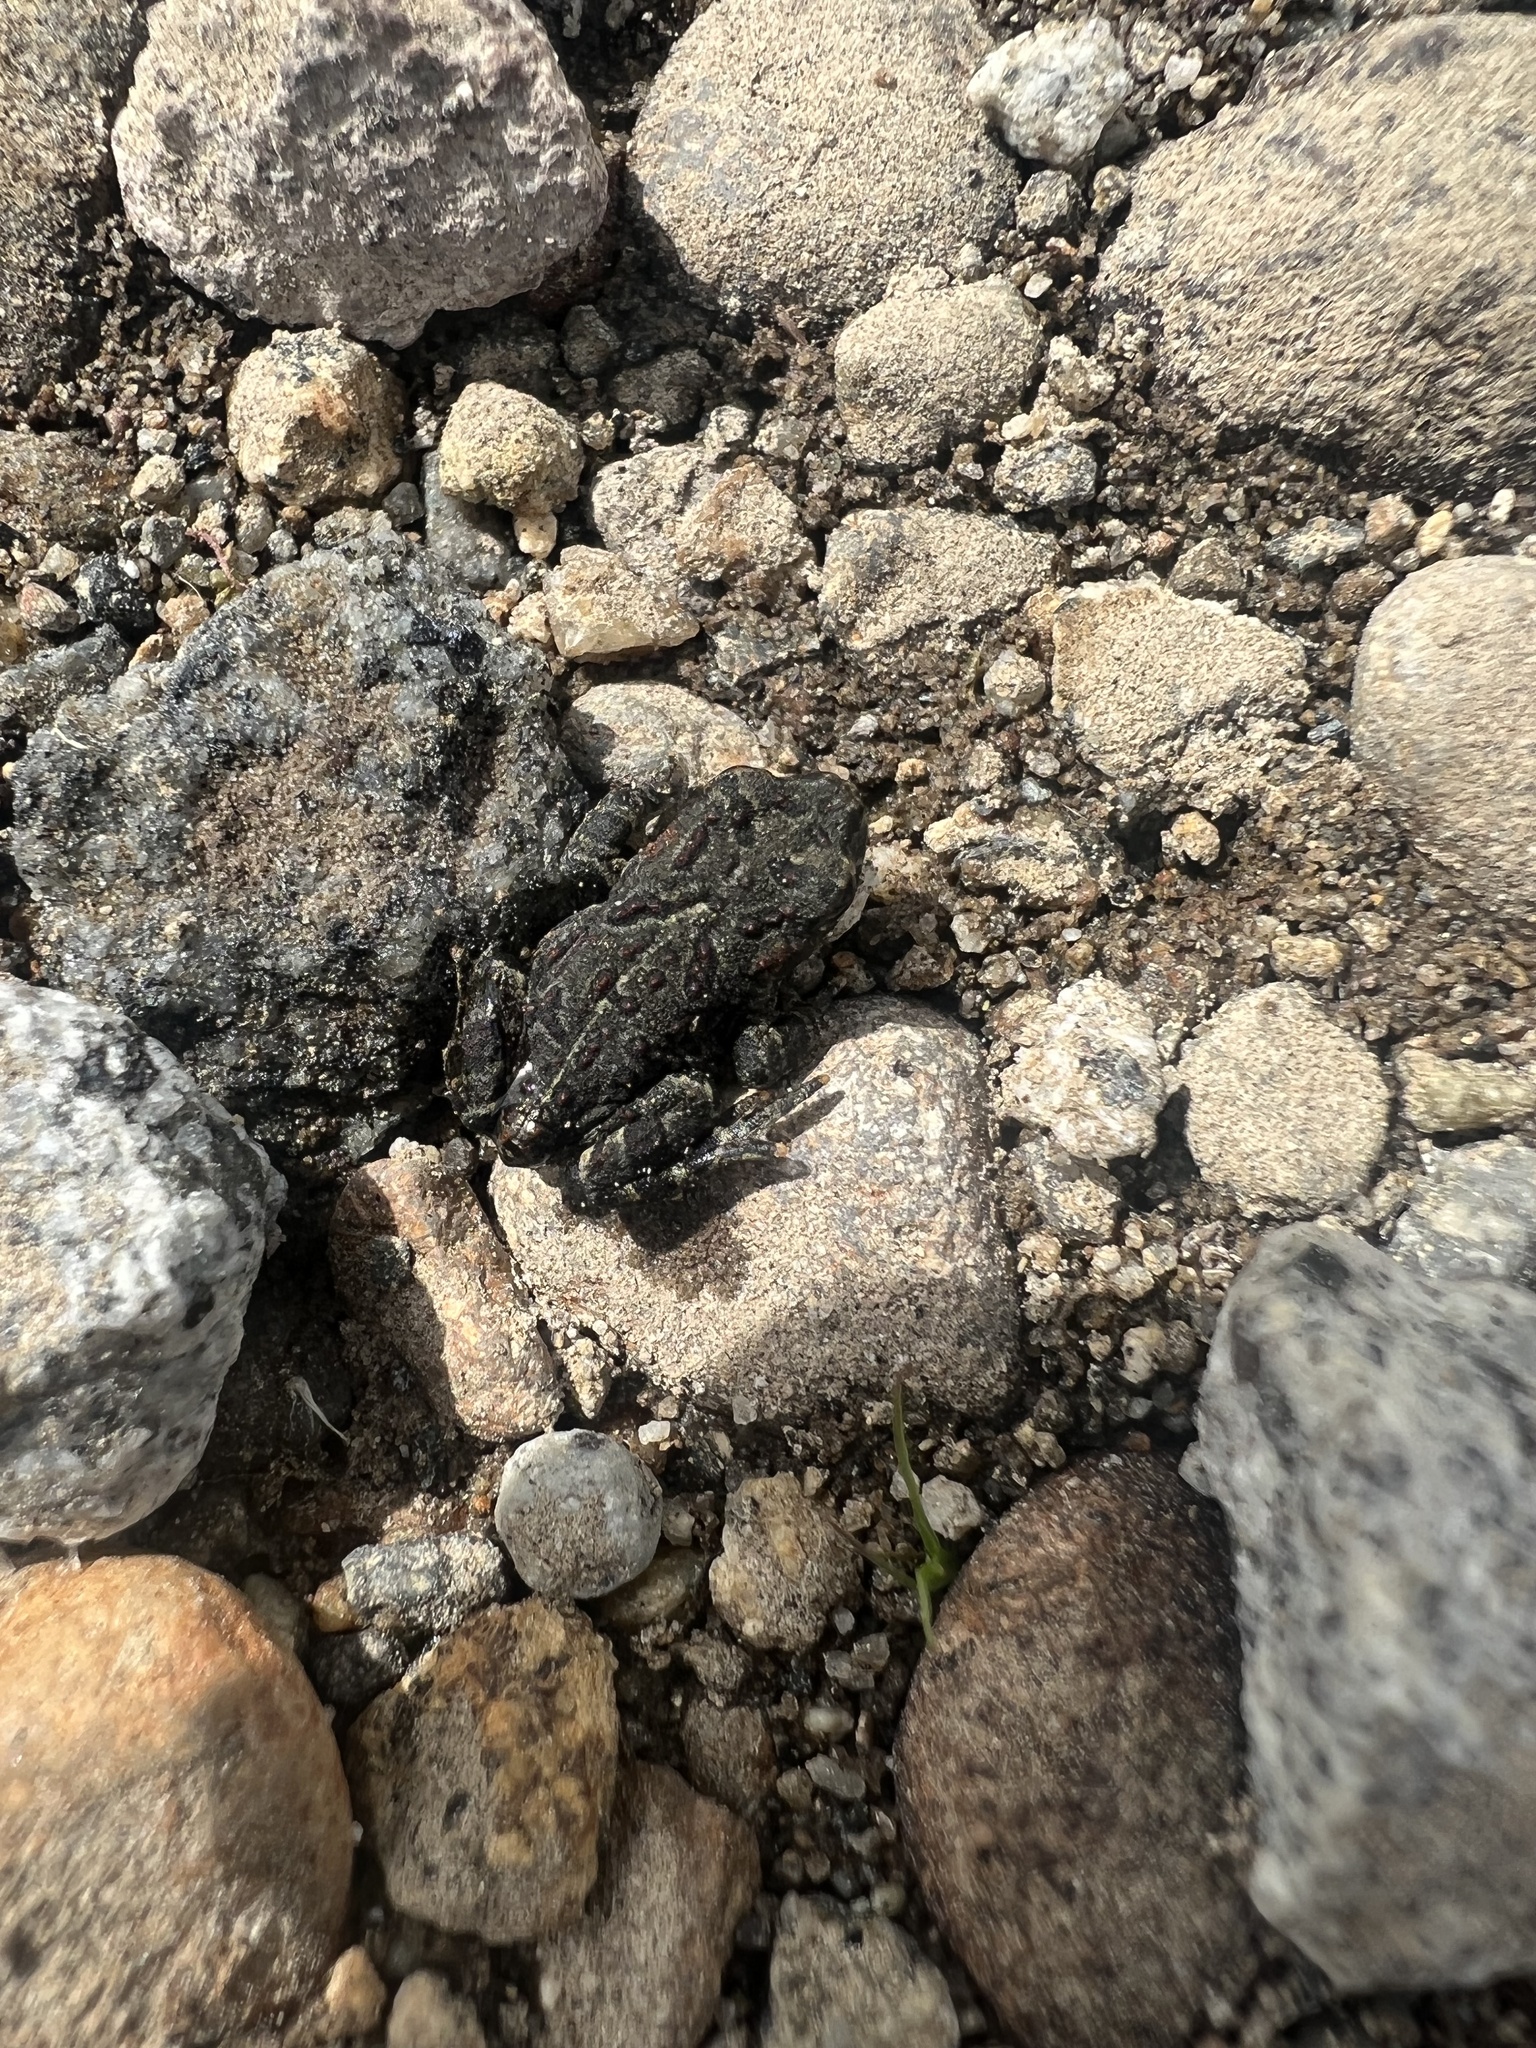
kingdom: Animalia
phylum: Chordata
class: Amphibia
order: Anura
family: Bufonidae
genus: Anaxyrus
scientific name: Anaxyrus boreas
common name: Western toad
